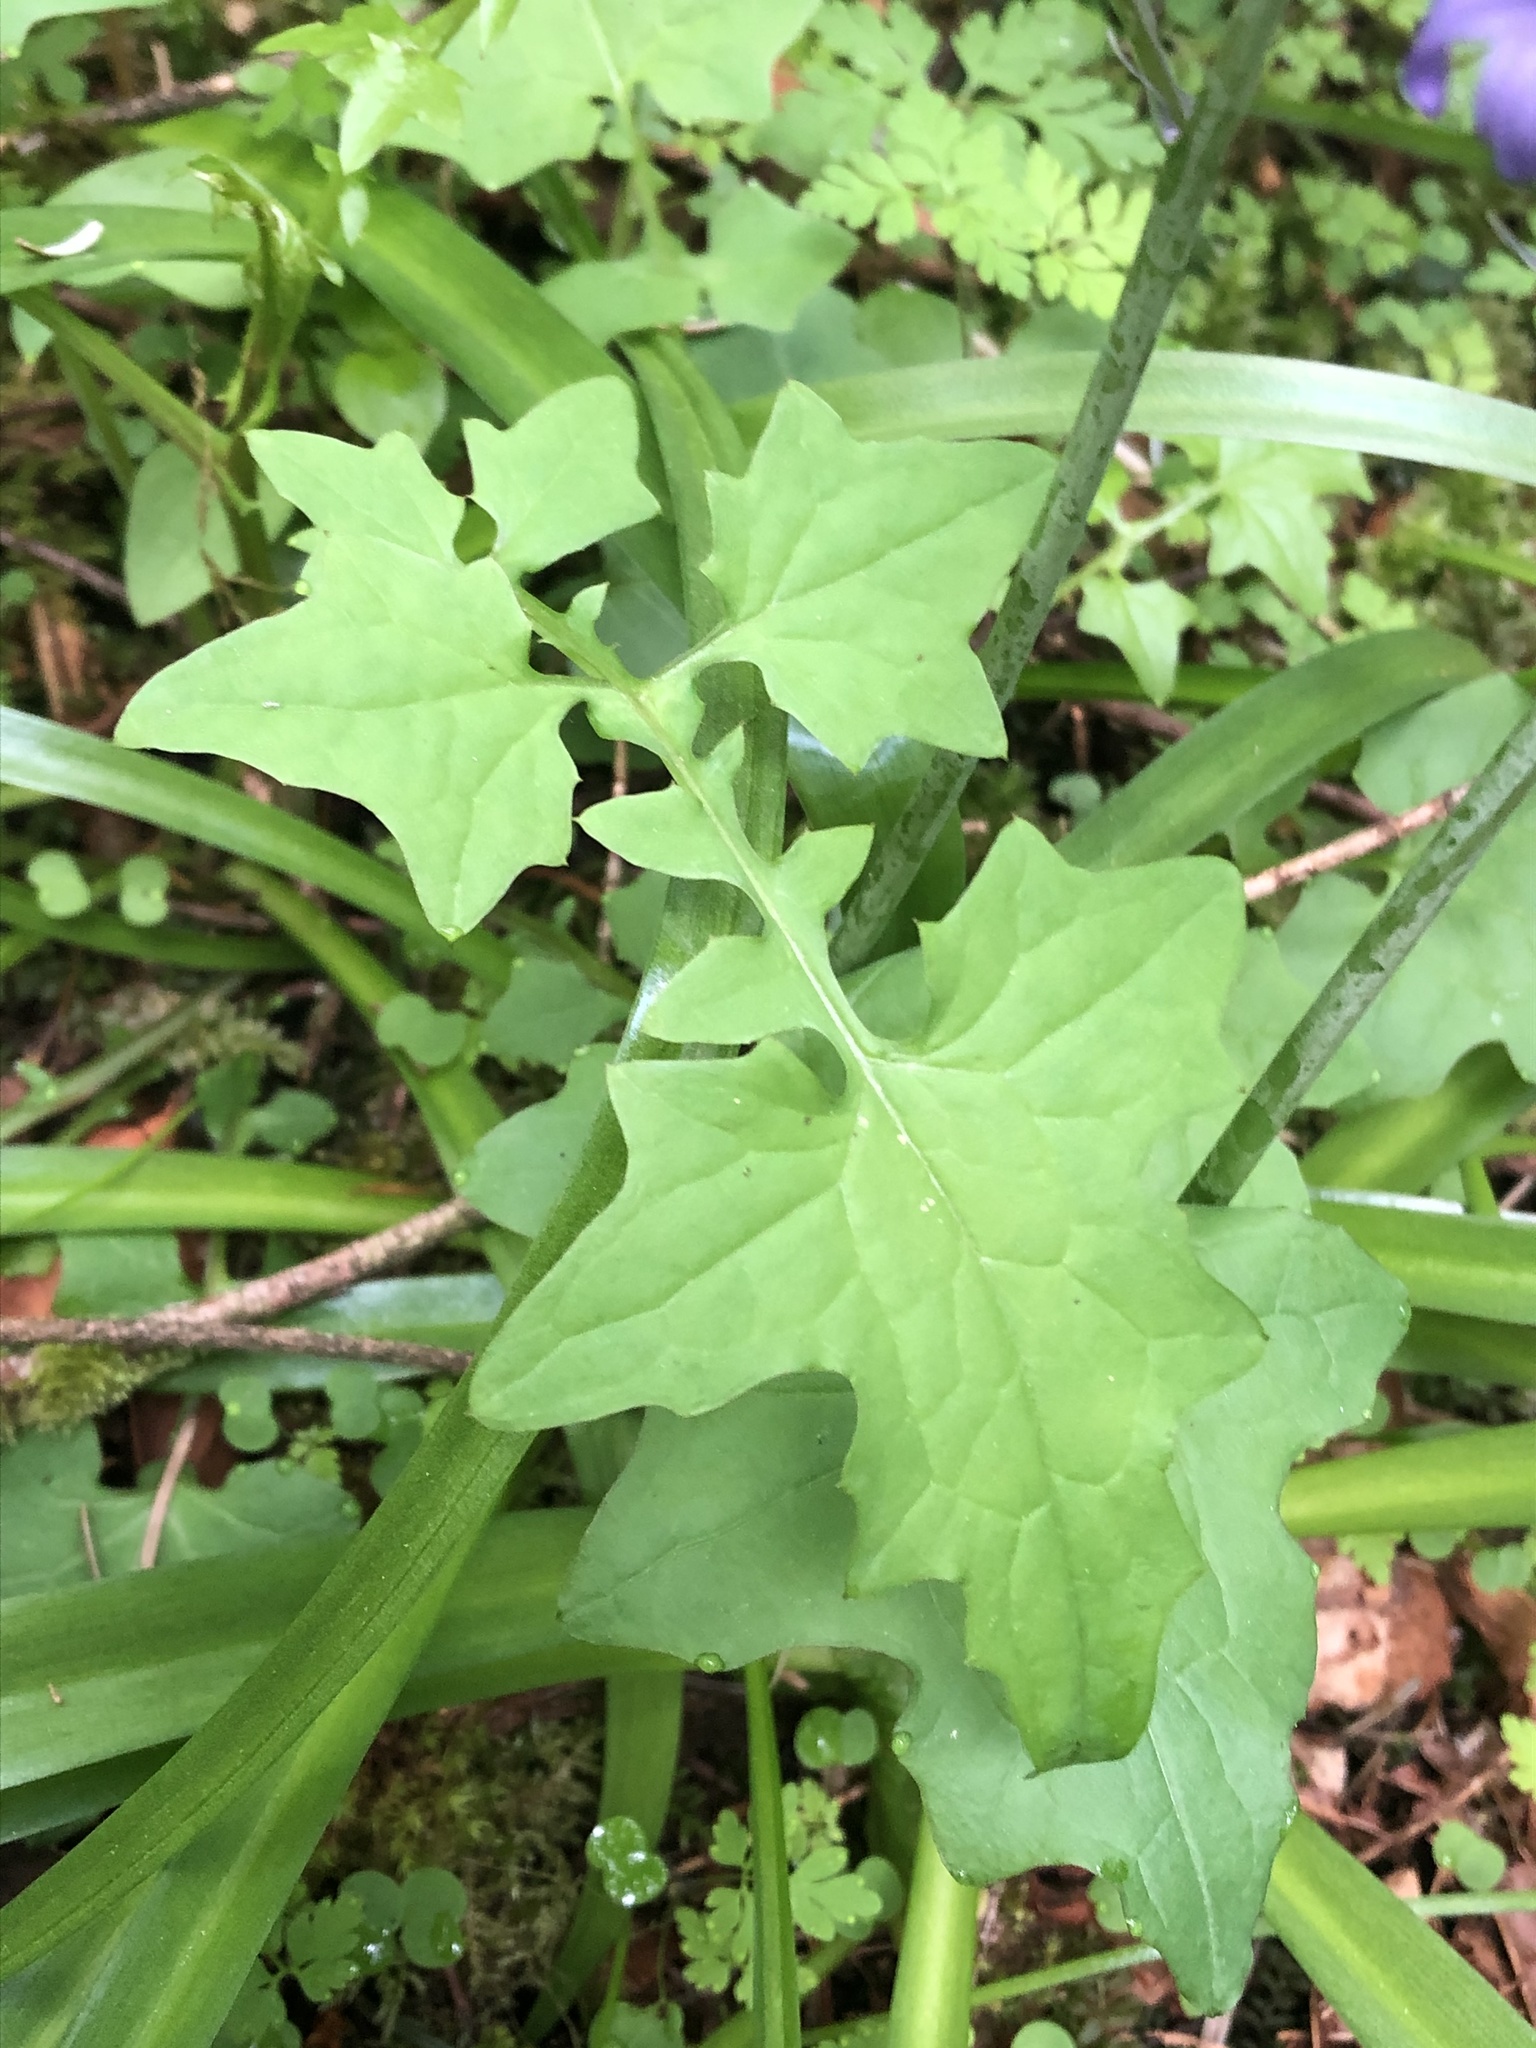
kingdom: Plantae
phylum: Tracheophyta
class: Magnoliopsida
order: Asterales
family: Asteraceae
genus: Mycelis
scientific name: Mycelis muralis
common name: Wall lettuce
